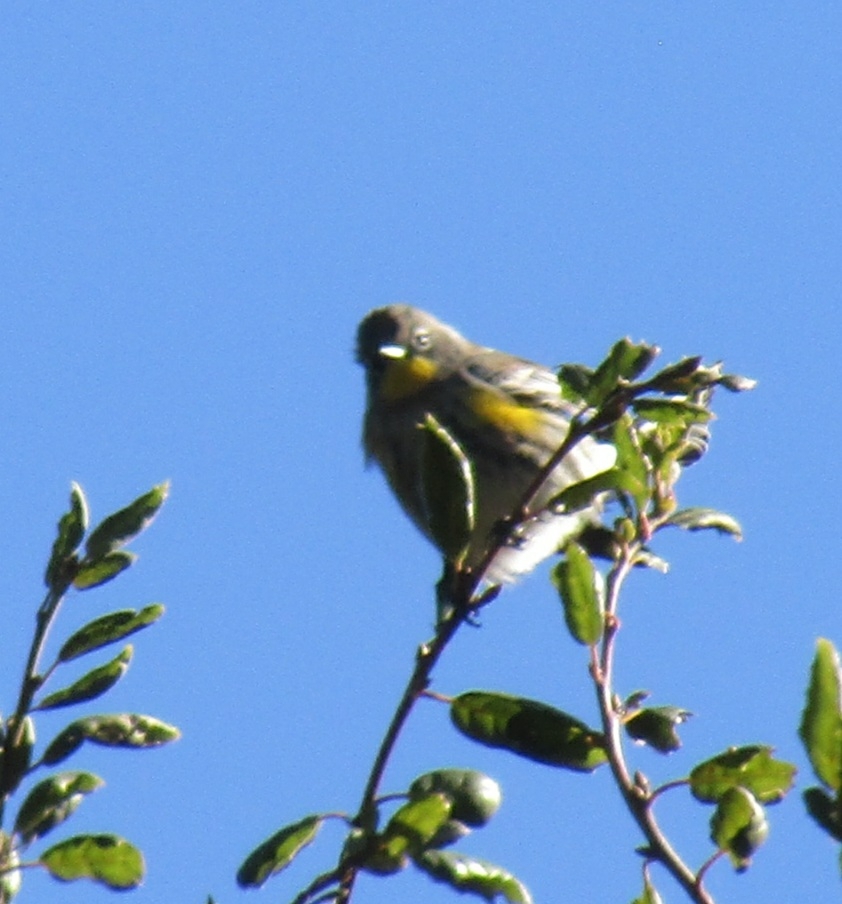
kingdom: Animalia
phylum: Chordata
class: Aves
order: Passeriformes
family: Parulidae
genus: Setophaga
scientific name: Setophaga auduboni
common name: Audubon's warbler
